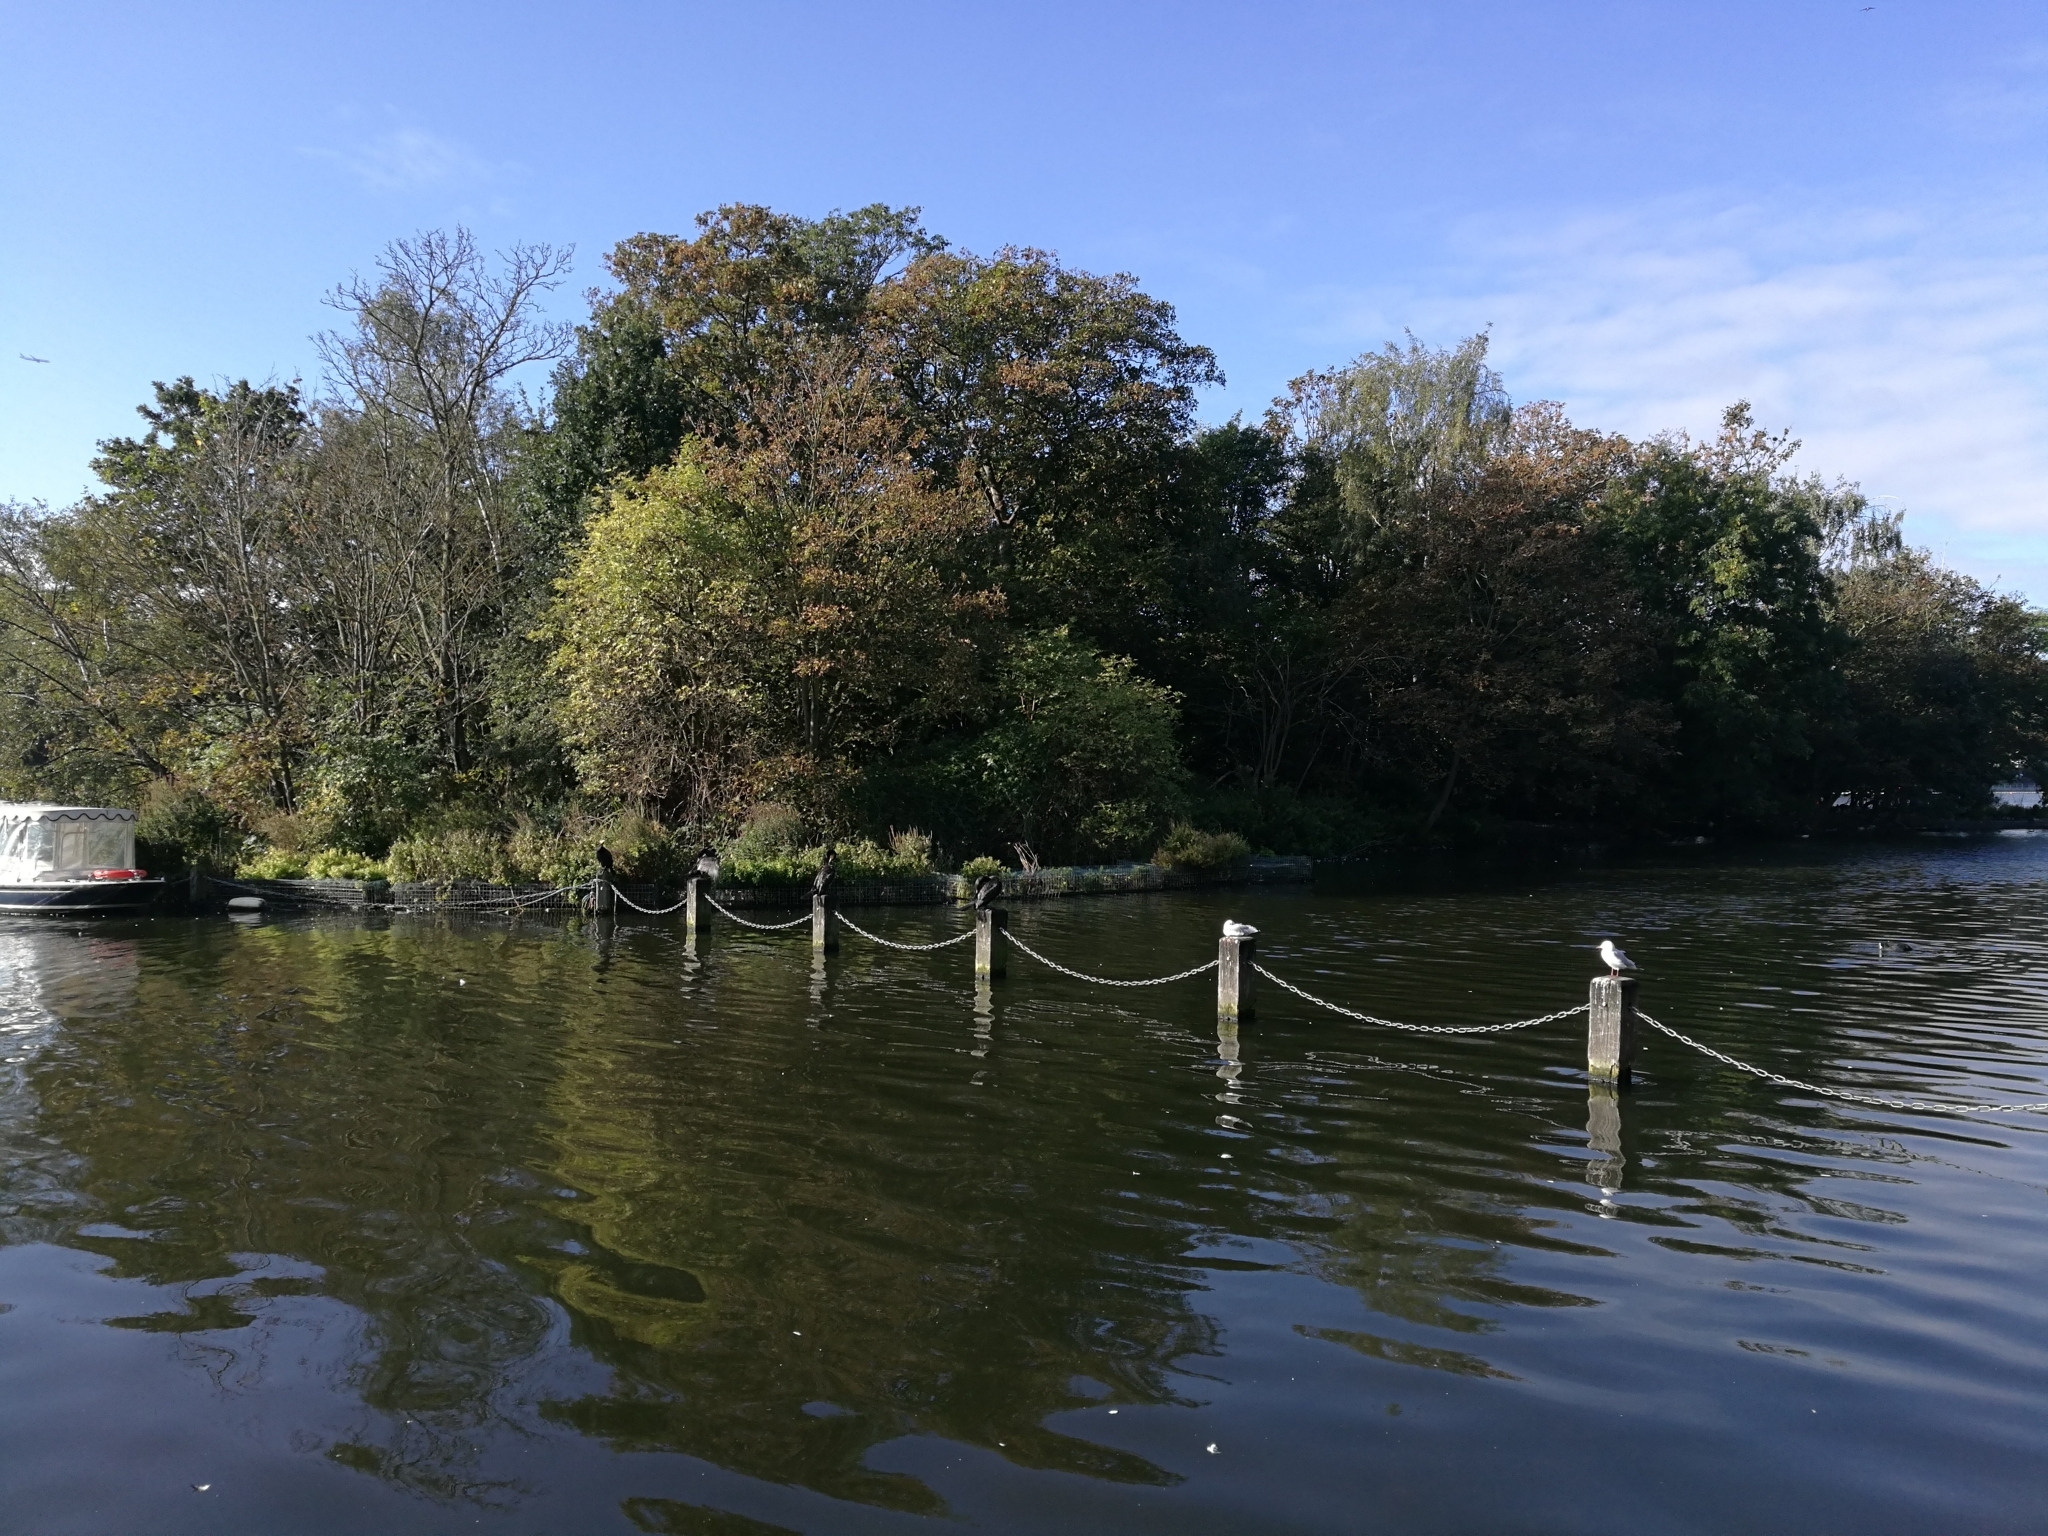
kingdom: Animalia
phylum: Chordata
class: Aves
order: Charadriiformes
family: Laridae
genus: Chroicocephalus
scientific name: Chroicocephalus ridibundus
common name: Black-headed gull
